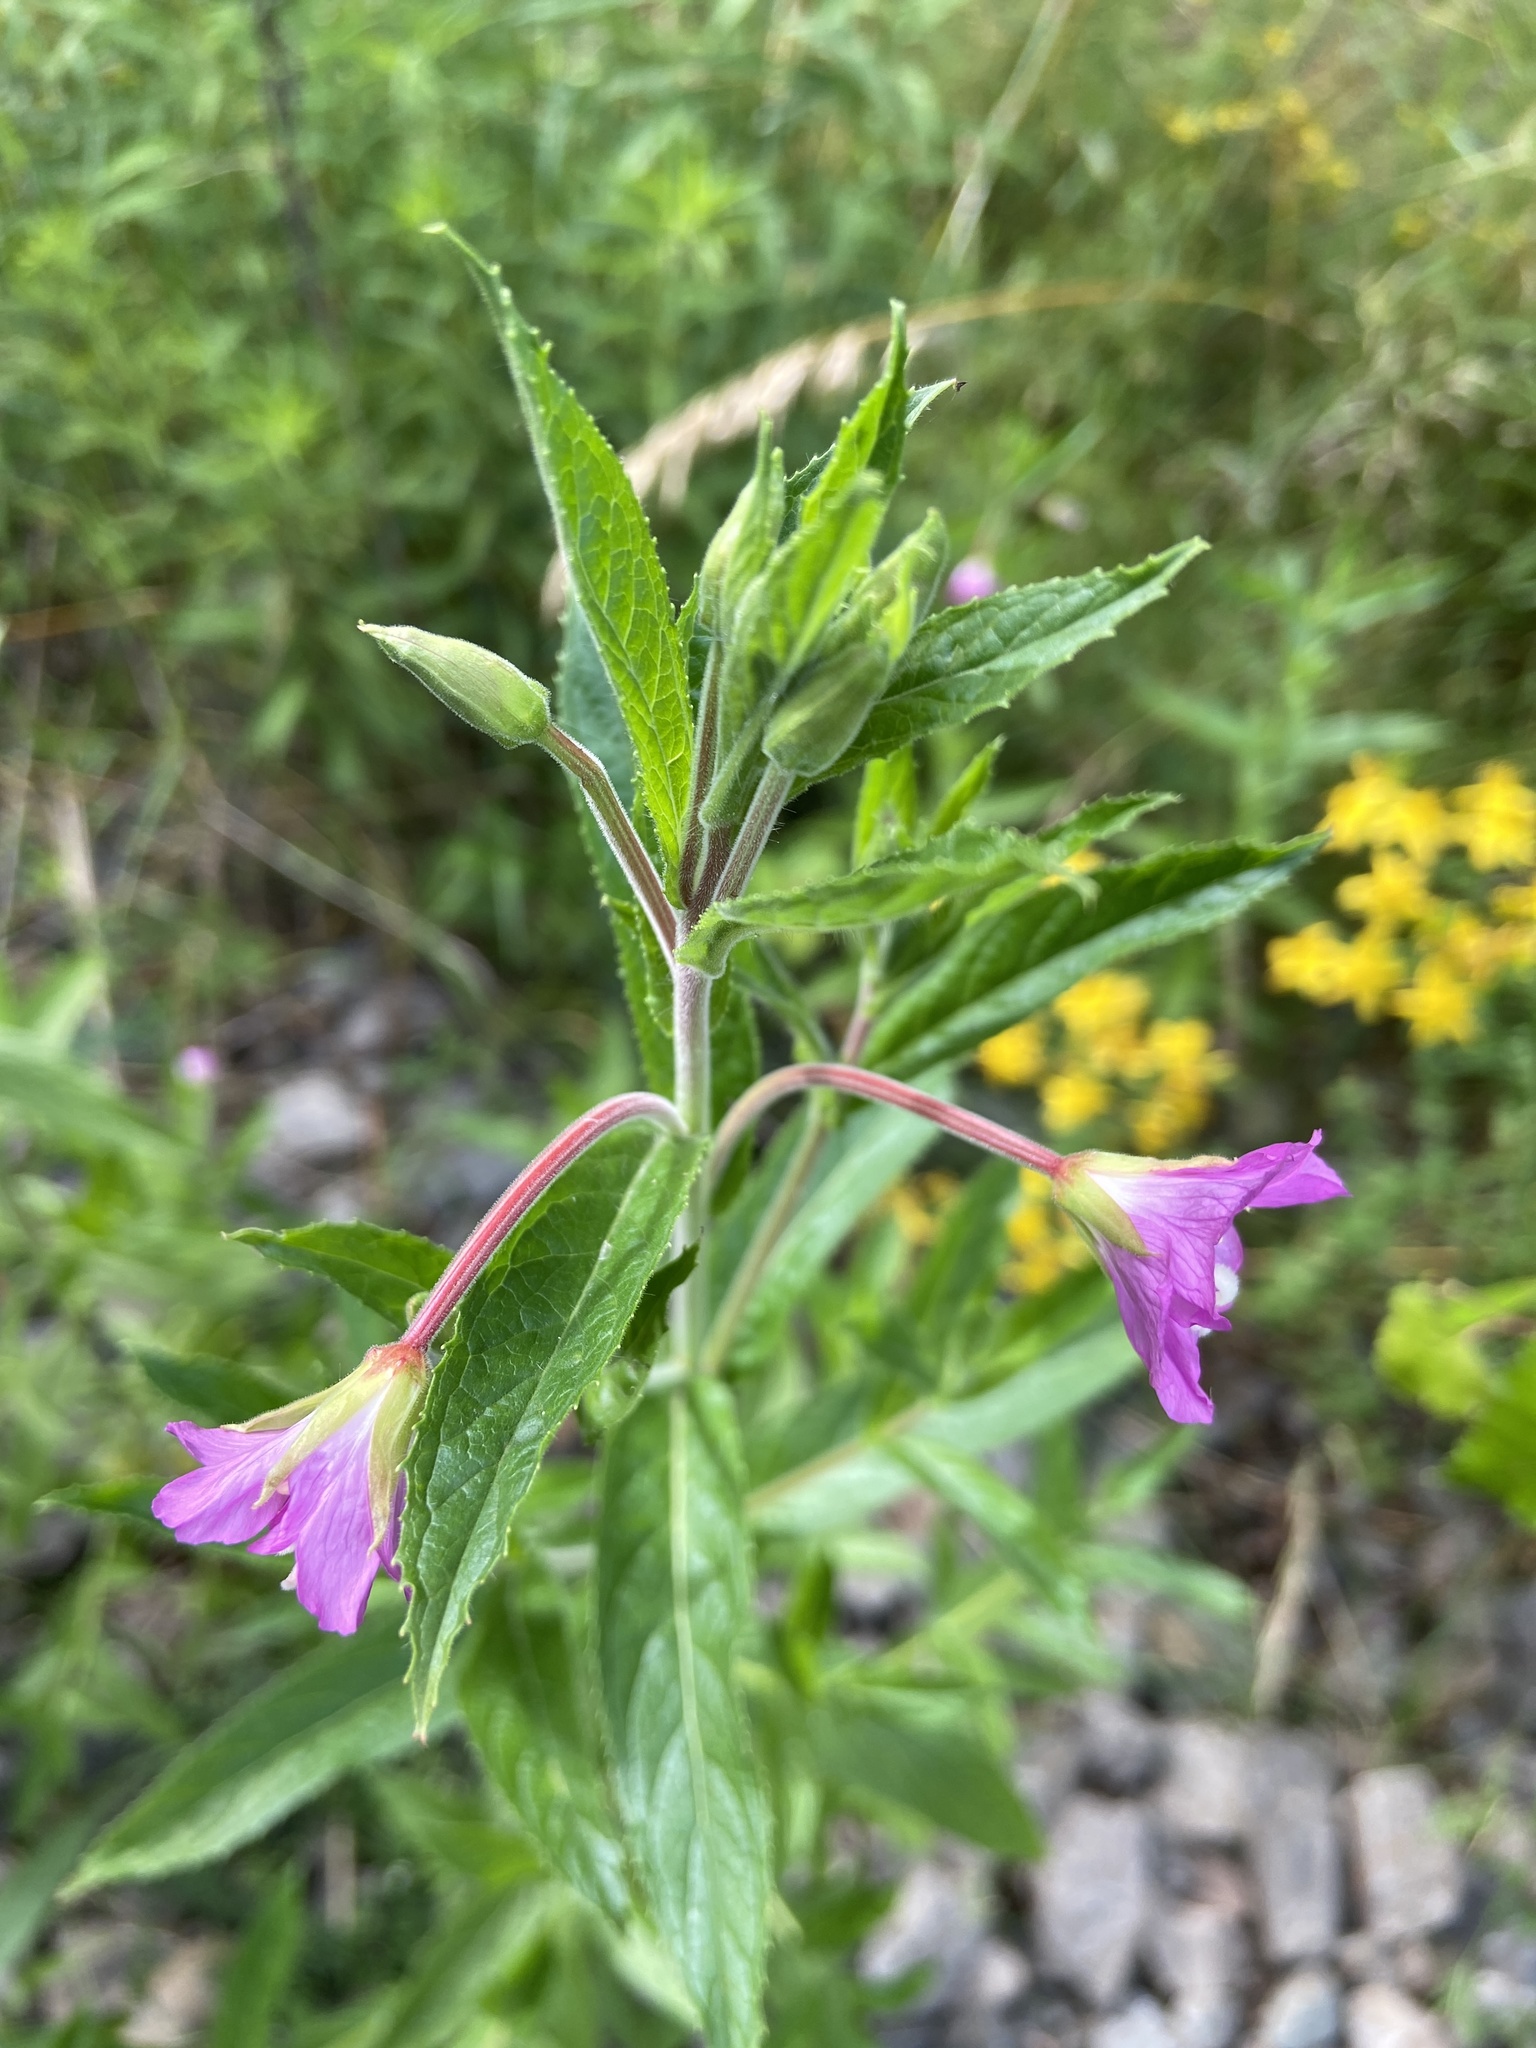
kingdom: Plantae
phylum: Tracheophyta
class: Magnoliopsida
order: Myrtales
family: Onagraceae
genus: Epilobium
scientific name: Epilobium hirsutum
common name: Great willowherb
